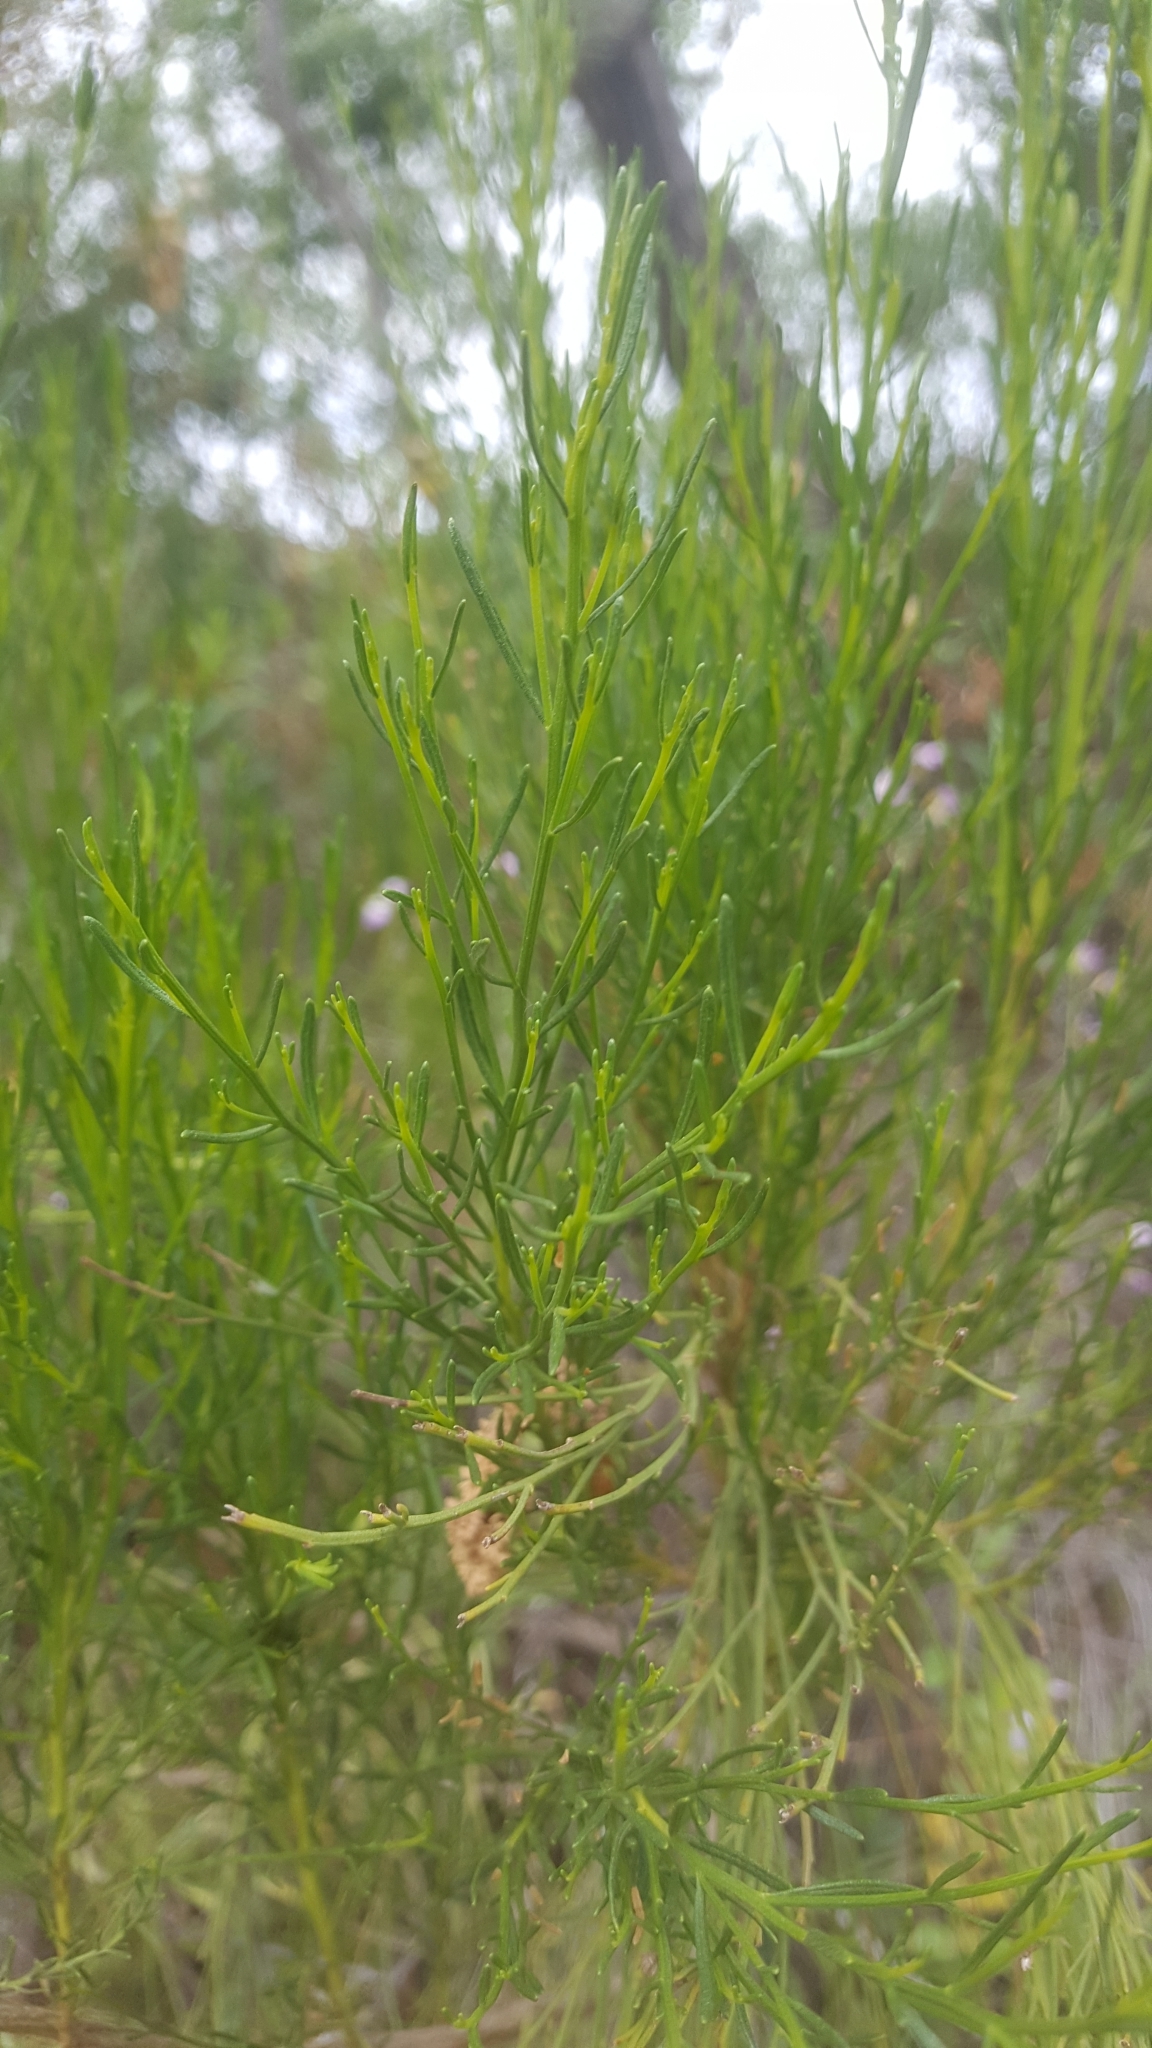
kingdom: Plantae
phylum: Tracheophyta
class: Magnoliopsida
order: Asterales
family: Asteraceae
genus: Baccharis
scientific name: Baccharis sarothroides
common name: Desert-broom
